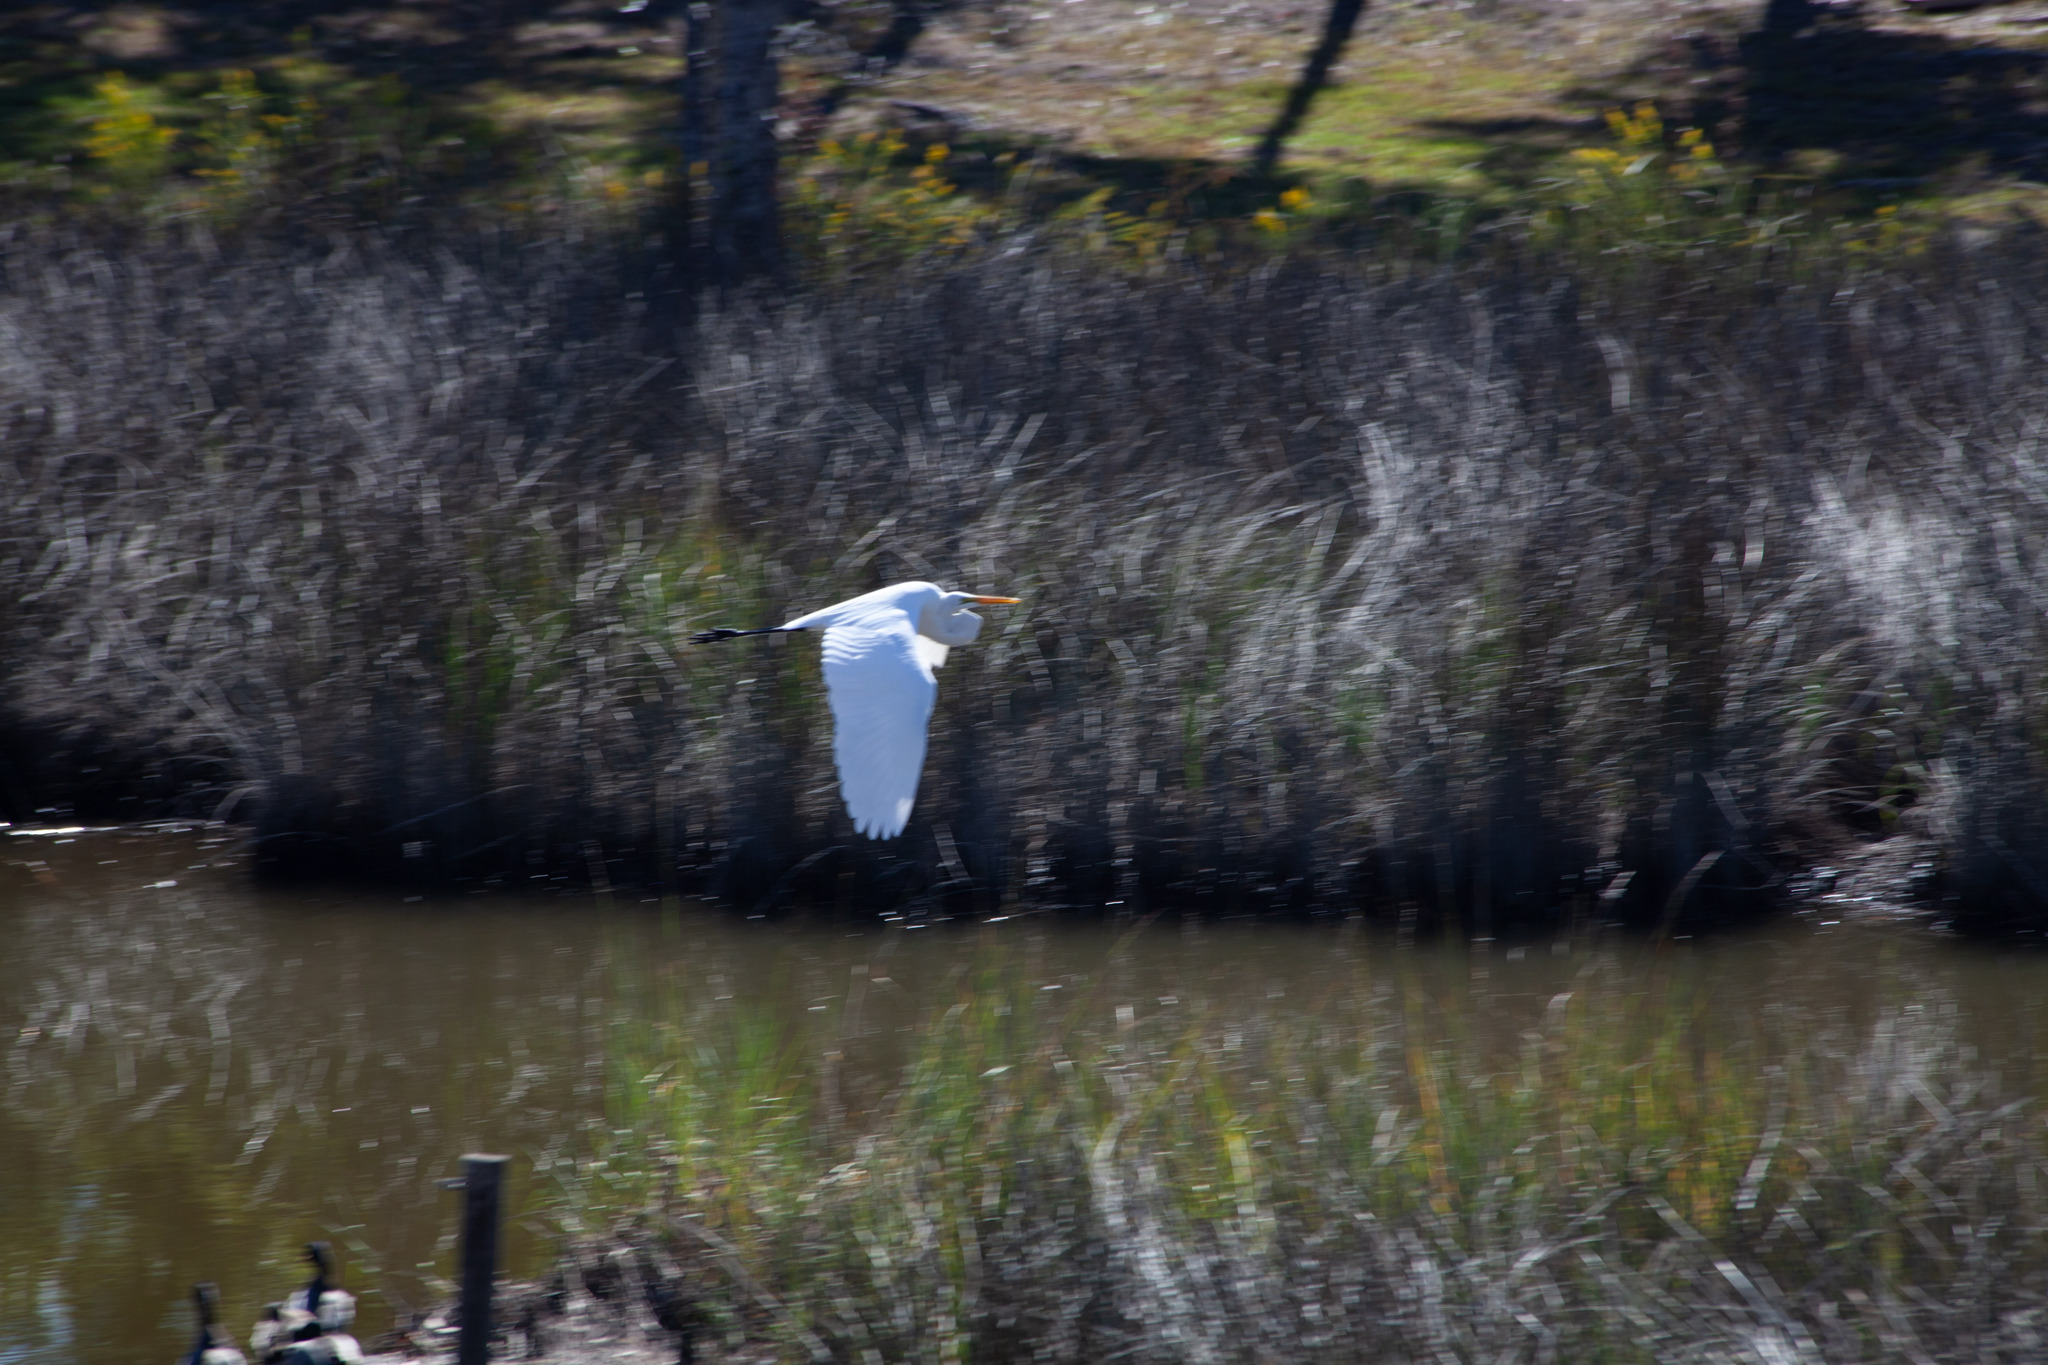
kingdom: Animalia
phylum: Chordata
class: Aves
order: Pelecaniformes
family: Ardeidae
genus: Ardea
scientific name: Ardea alba
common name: Great egret
